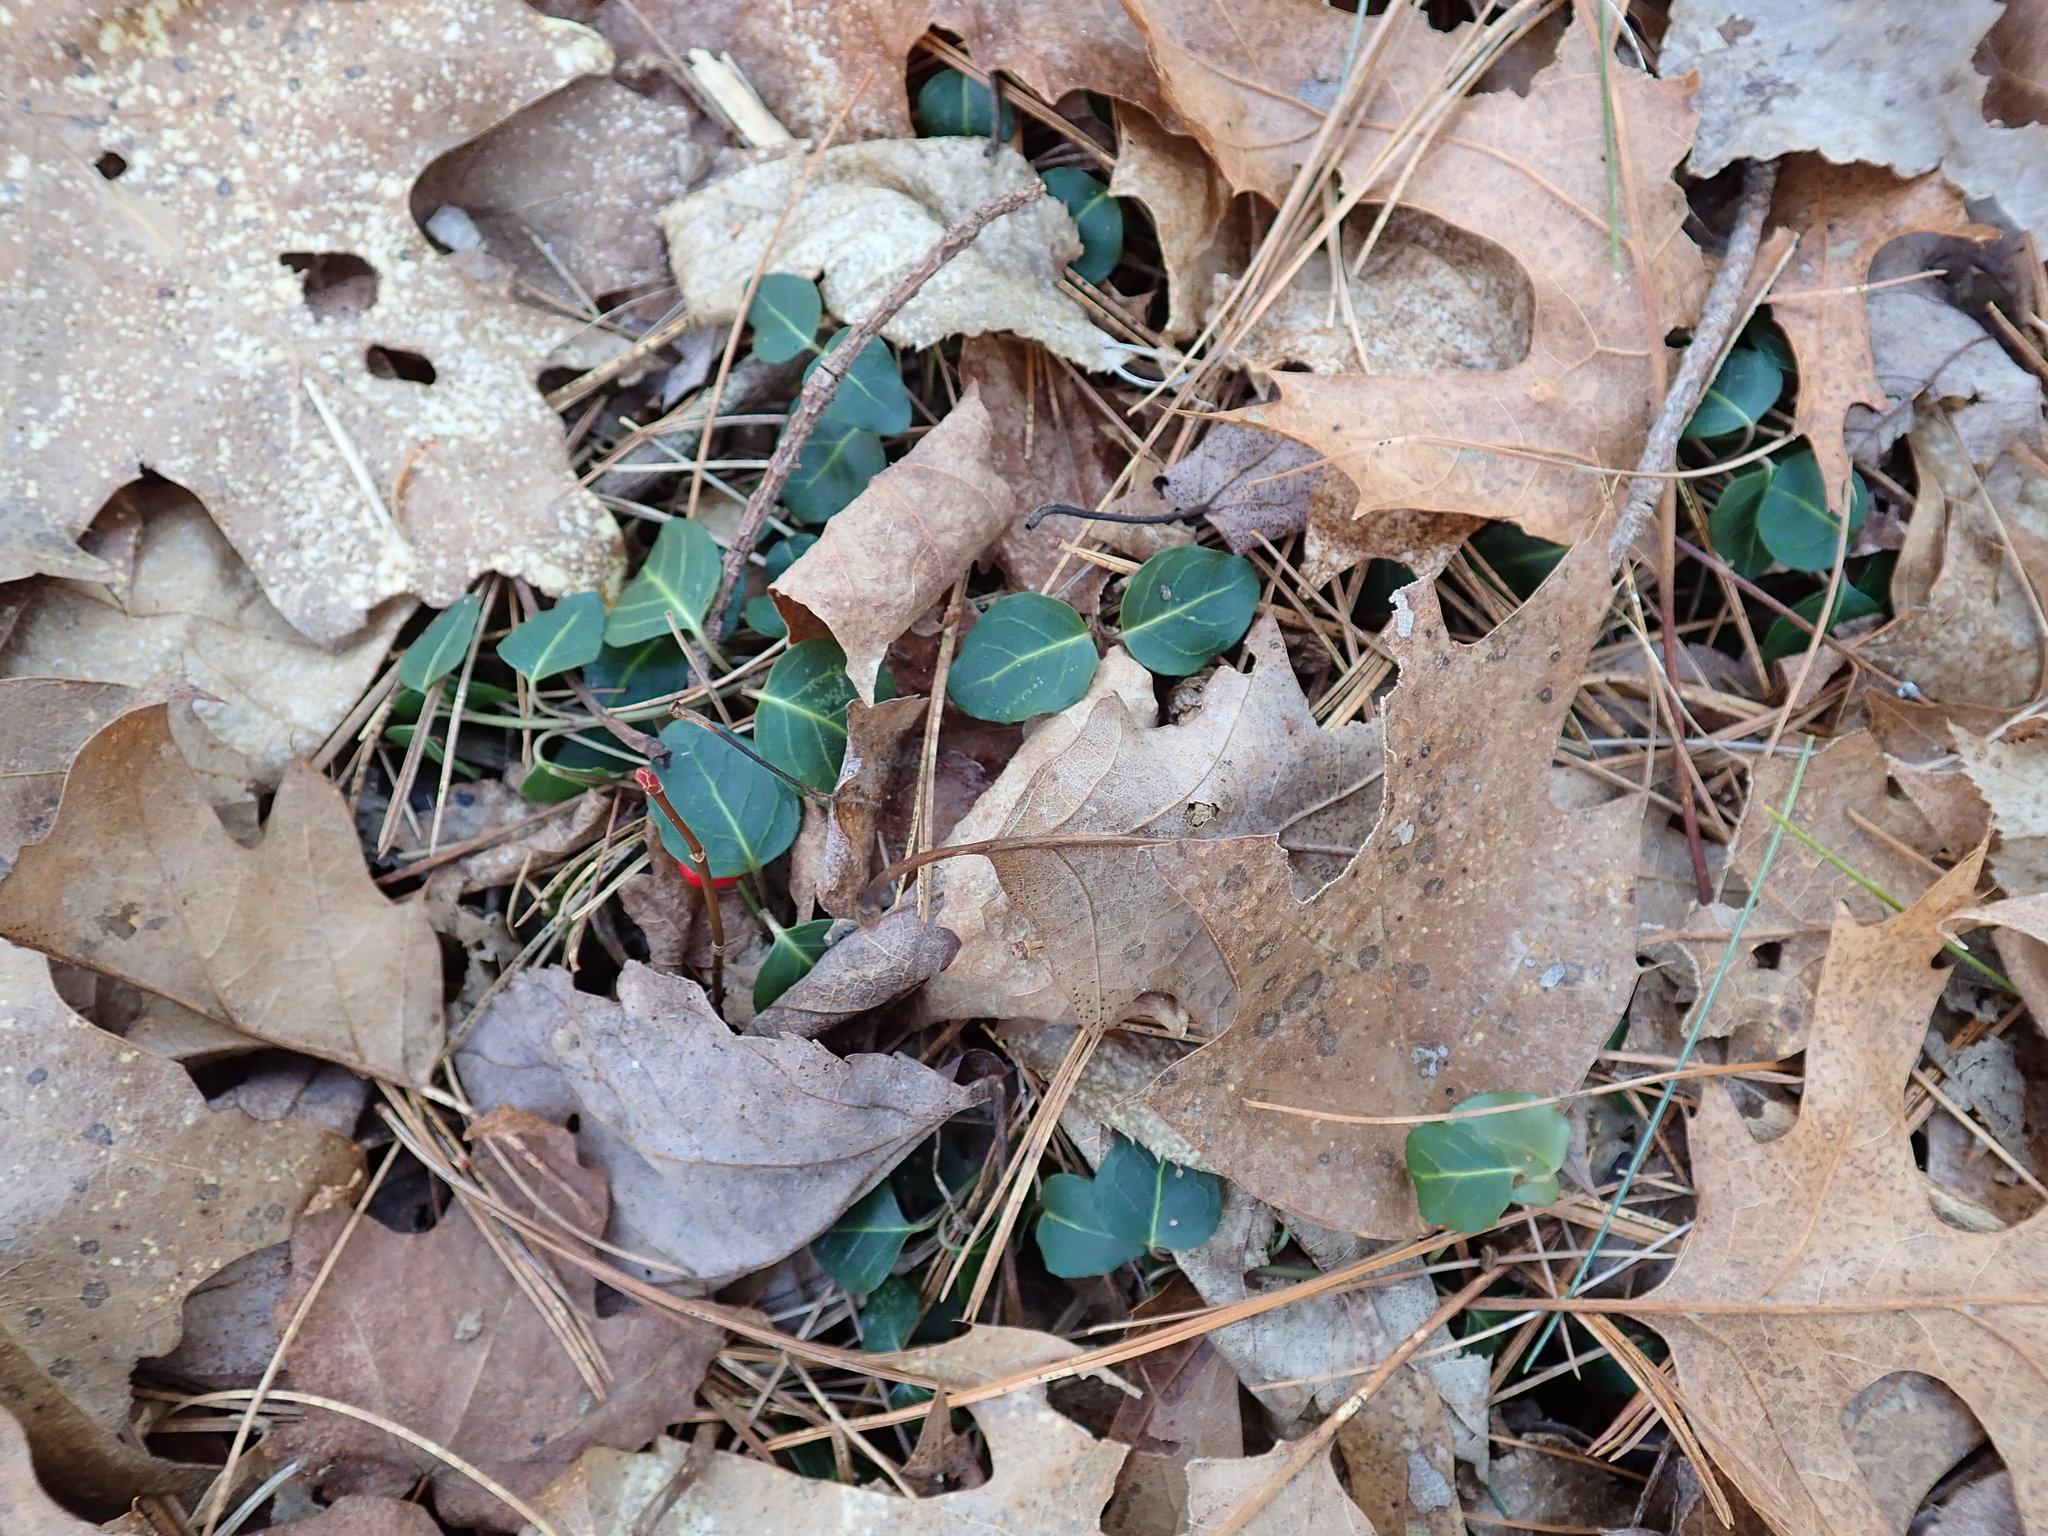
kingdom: Plantae
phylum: Tracheophyta
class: Magnoliopsida
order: Gentianales
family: Rubiaceae
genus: Mitchella
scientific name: Mitchella repens
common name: Partridge-berry
